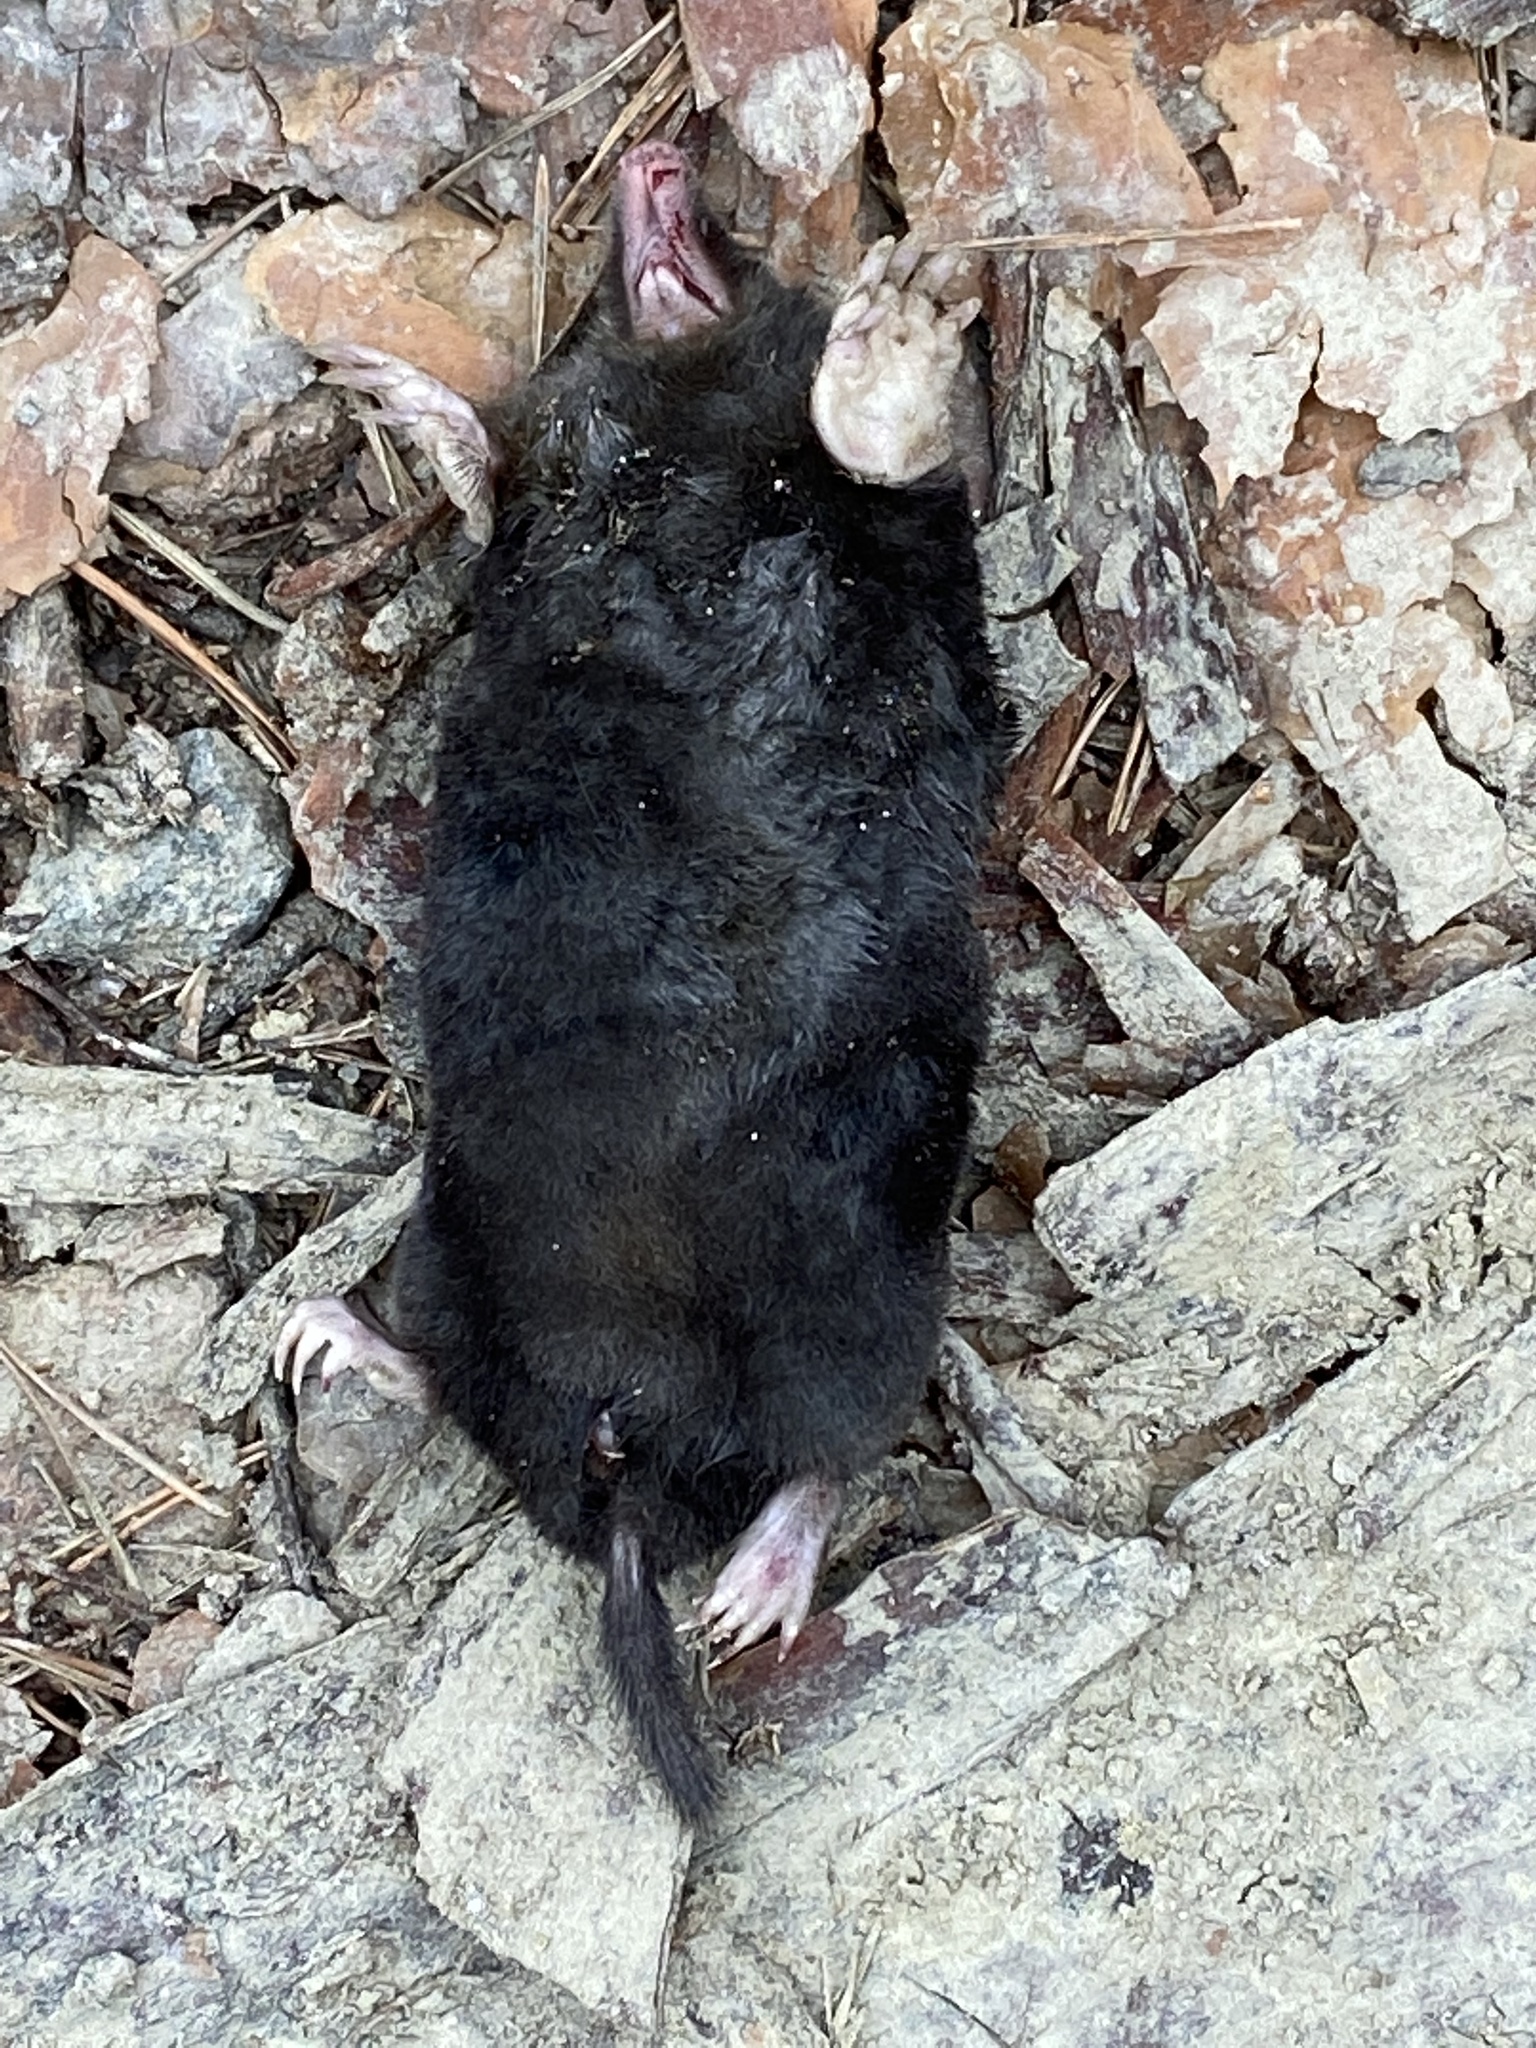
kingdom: Animalia
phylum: Chordata
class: Mammalia
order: Soricomorpha
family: Talpidae
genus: Talpa
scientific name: Talpa europaea
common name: European mole
